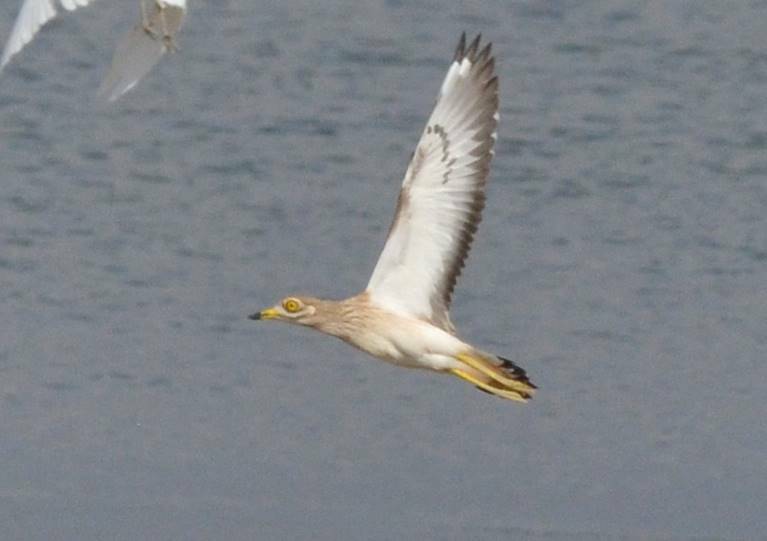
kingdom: Animalia
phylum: Chordata
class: Aves
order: Charadriiformes
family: Burhinidae
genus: Burhinus
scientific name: Burhinus oedicnemus
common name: Eurasian stone-curlew
